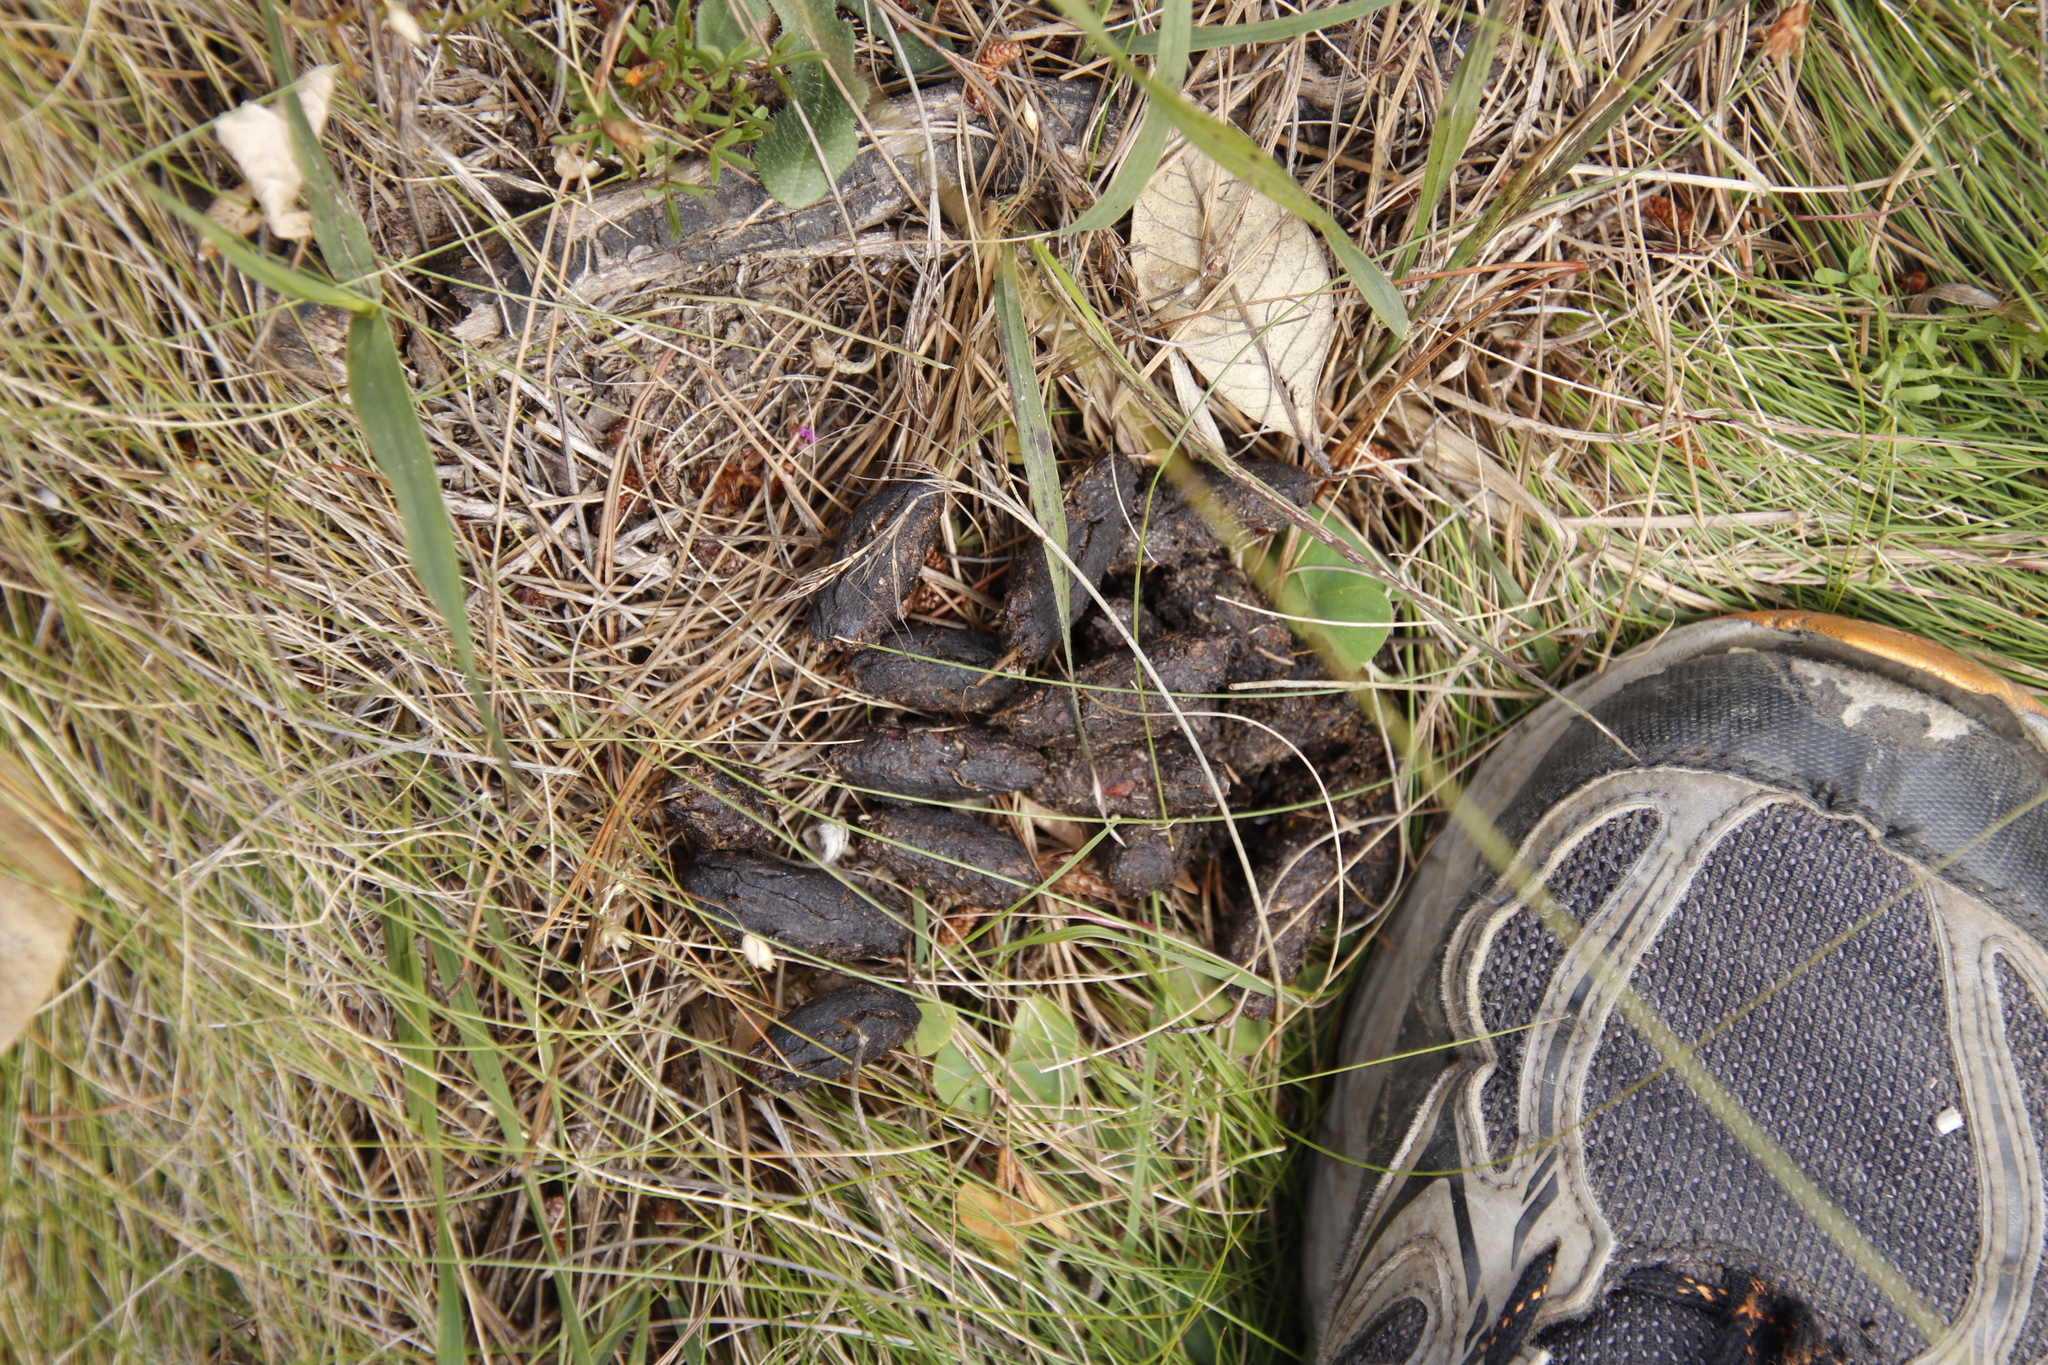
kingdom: Animalia
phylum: Chordata
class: Mammalia
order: Rodentia
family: Hystricidae
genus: Hystrix
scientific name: Hystrix africaeaustralis
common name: Cape porcupine
